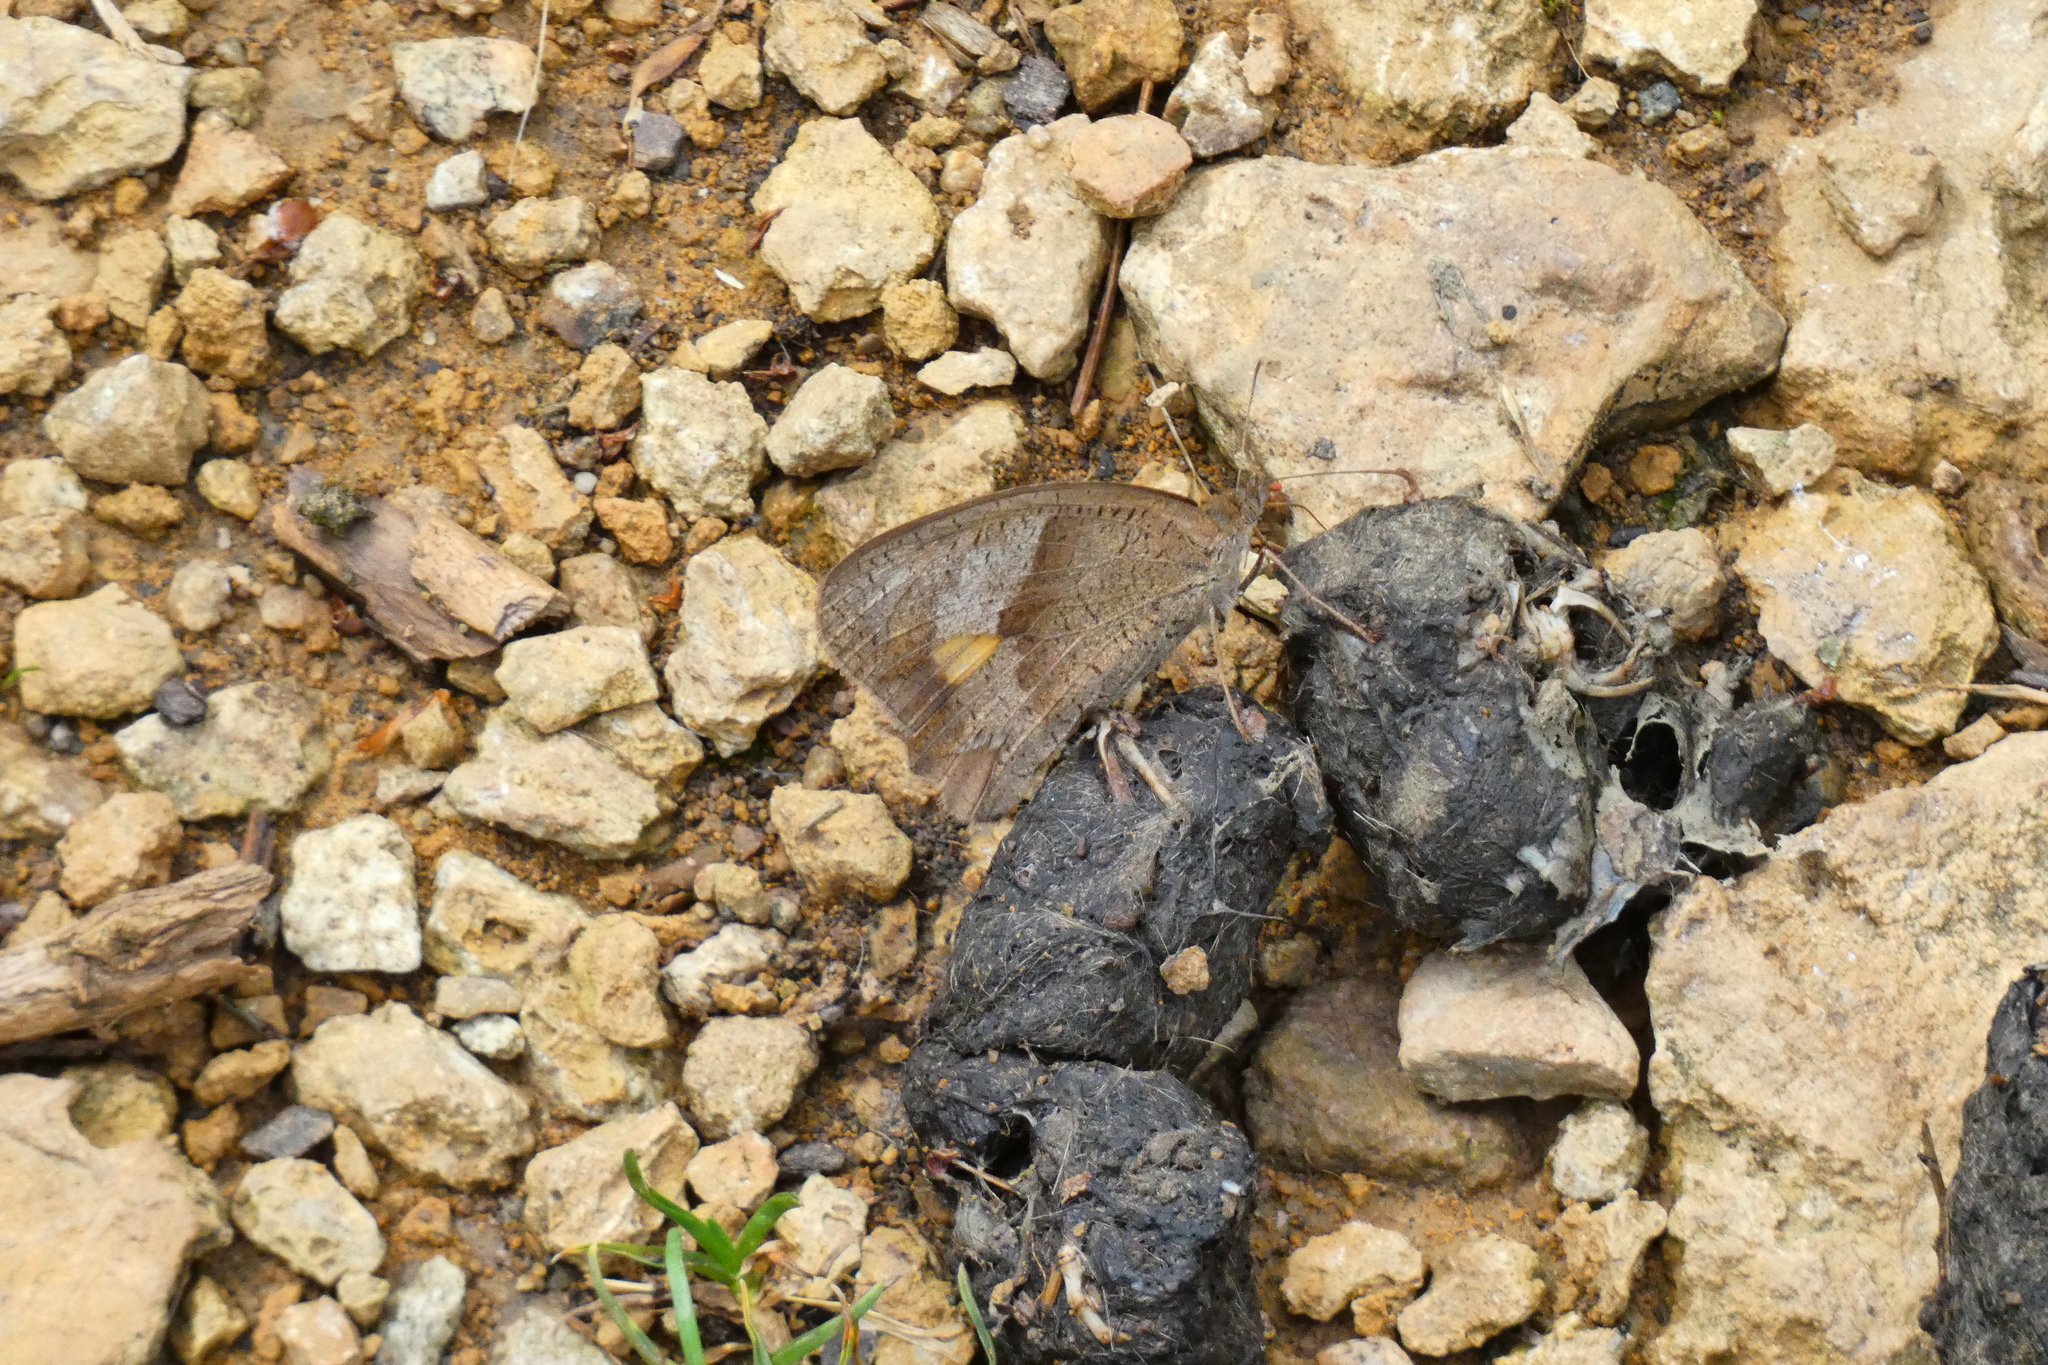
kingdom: Animalia
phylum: Arthropoda
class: Insecta
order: Lepidoptera
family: Nymphalidae
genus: Maniola
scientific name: Maniola jurtina
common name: Meadow brown
